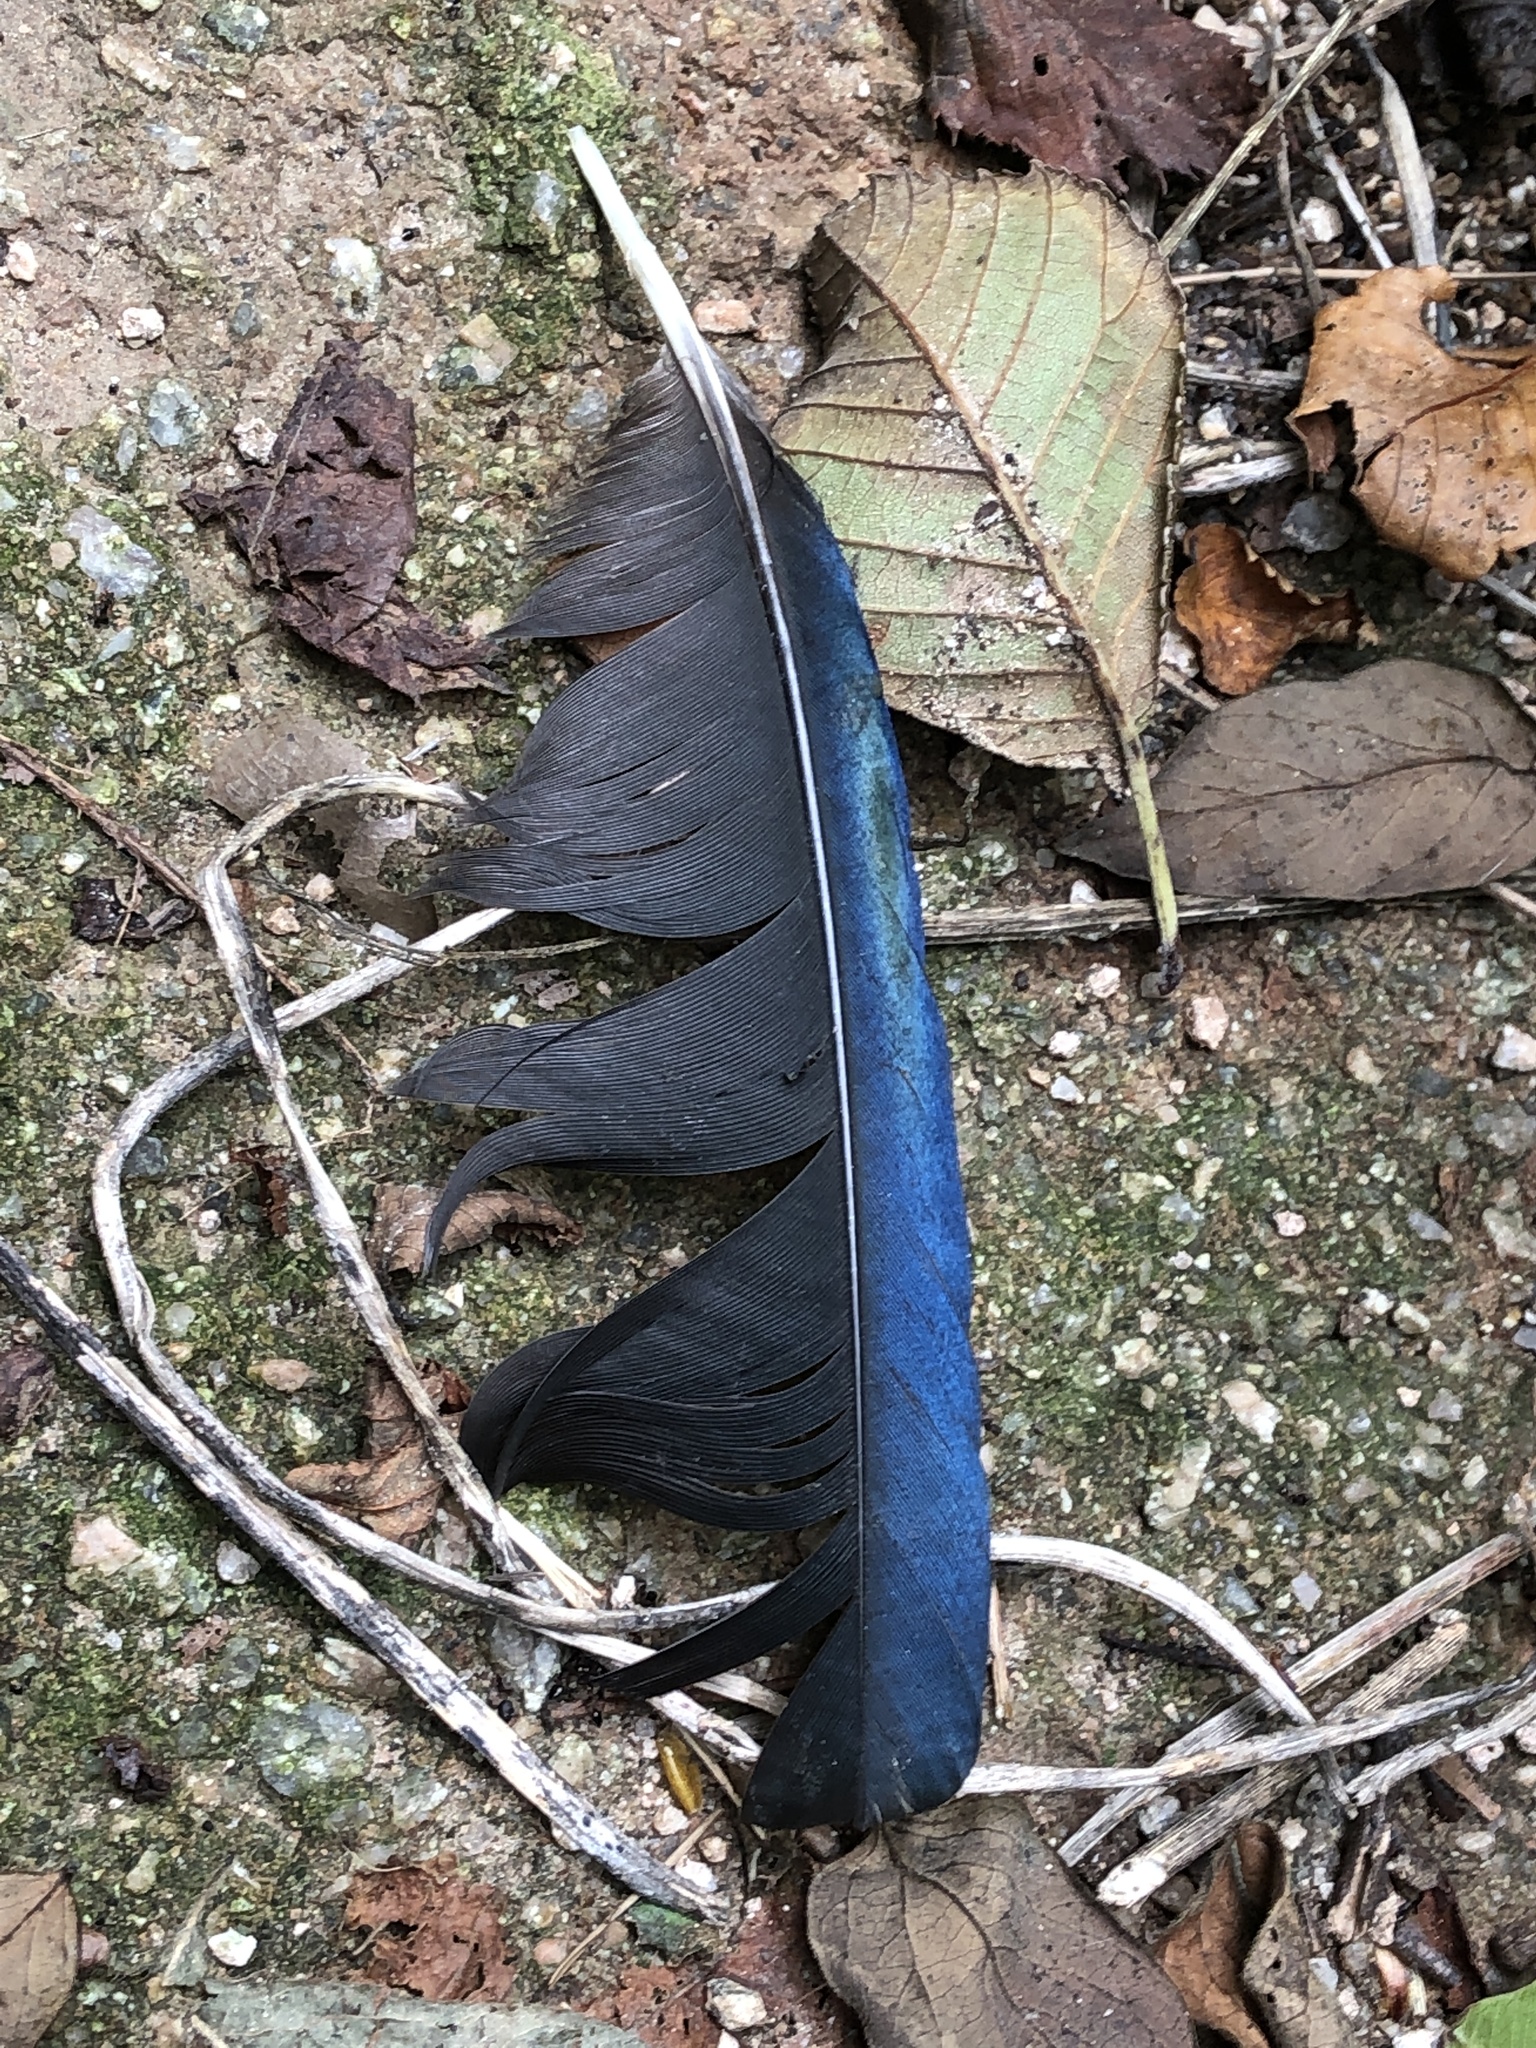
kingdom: Animalia
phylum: Chordata
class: Aves
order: Passeriformes
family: Corvidae
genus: Pica
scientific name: Pica serica
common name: Oriental magpie
